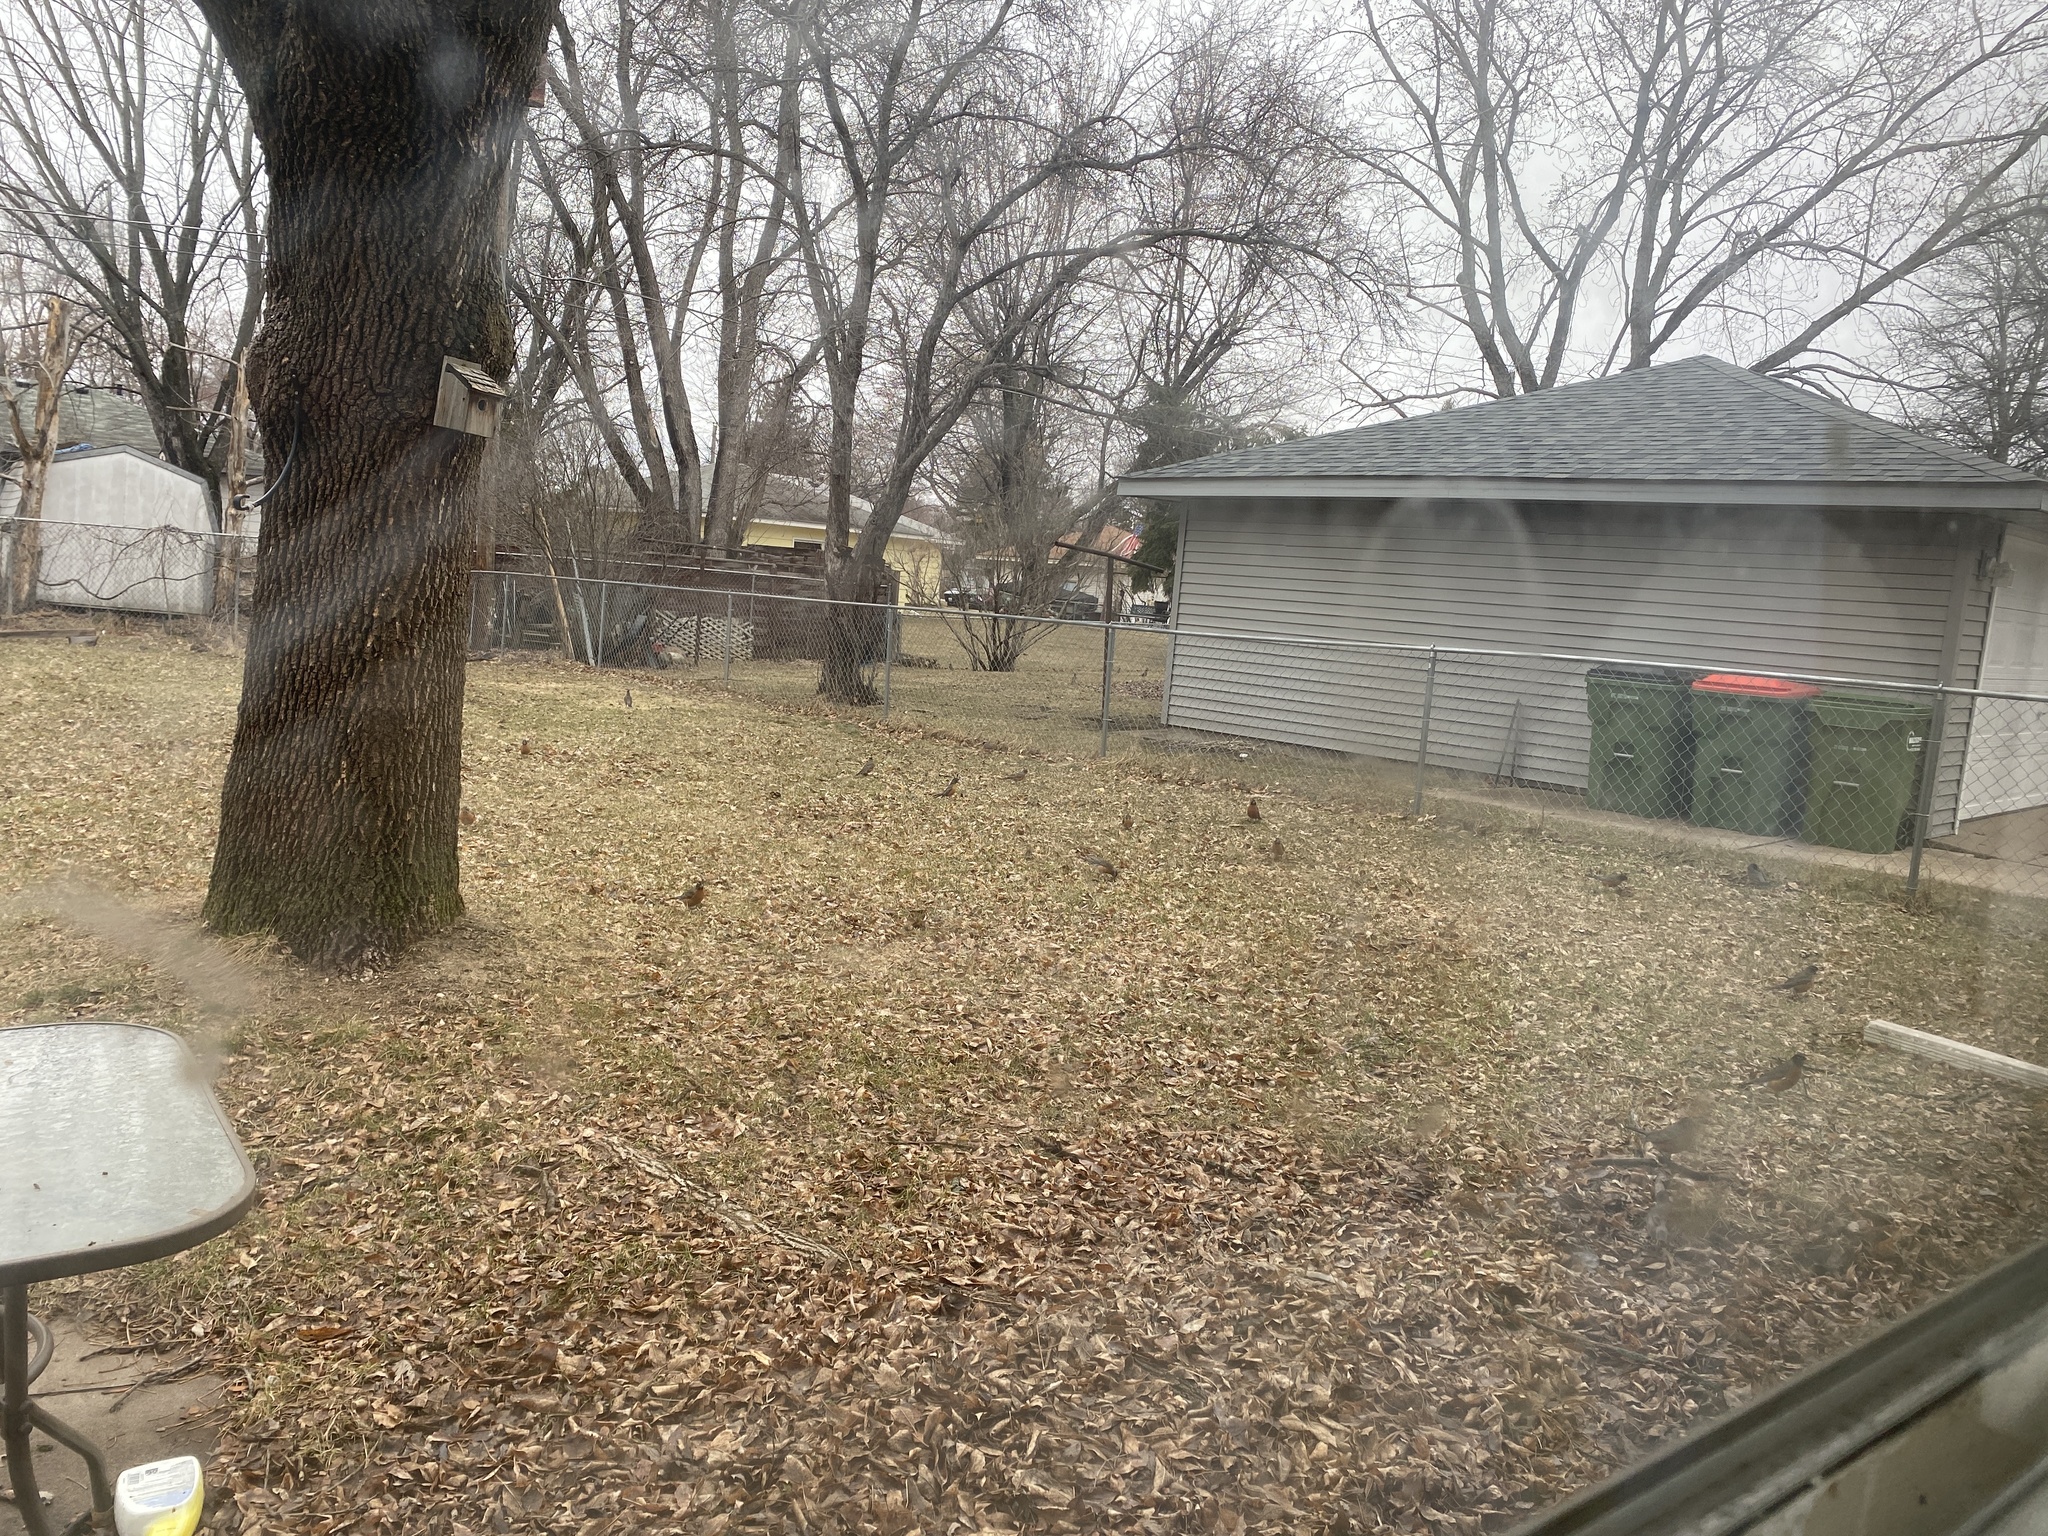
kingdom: Animalia
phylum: Chordata
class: Aves
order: Passeriformes
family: Turdidae
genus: Turdus
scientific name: Turdus migratorius
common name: American robin
